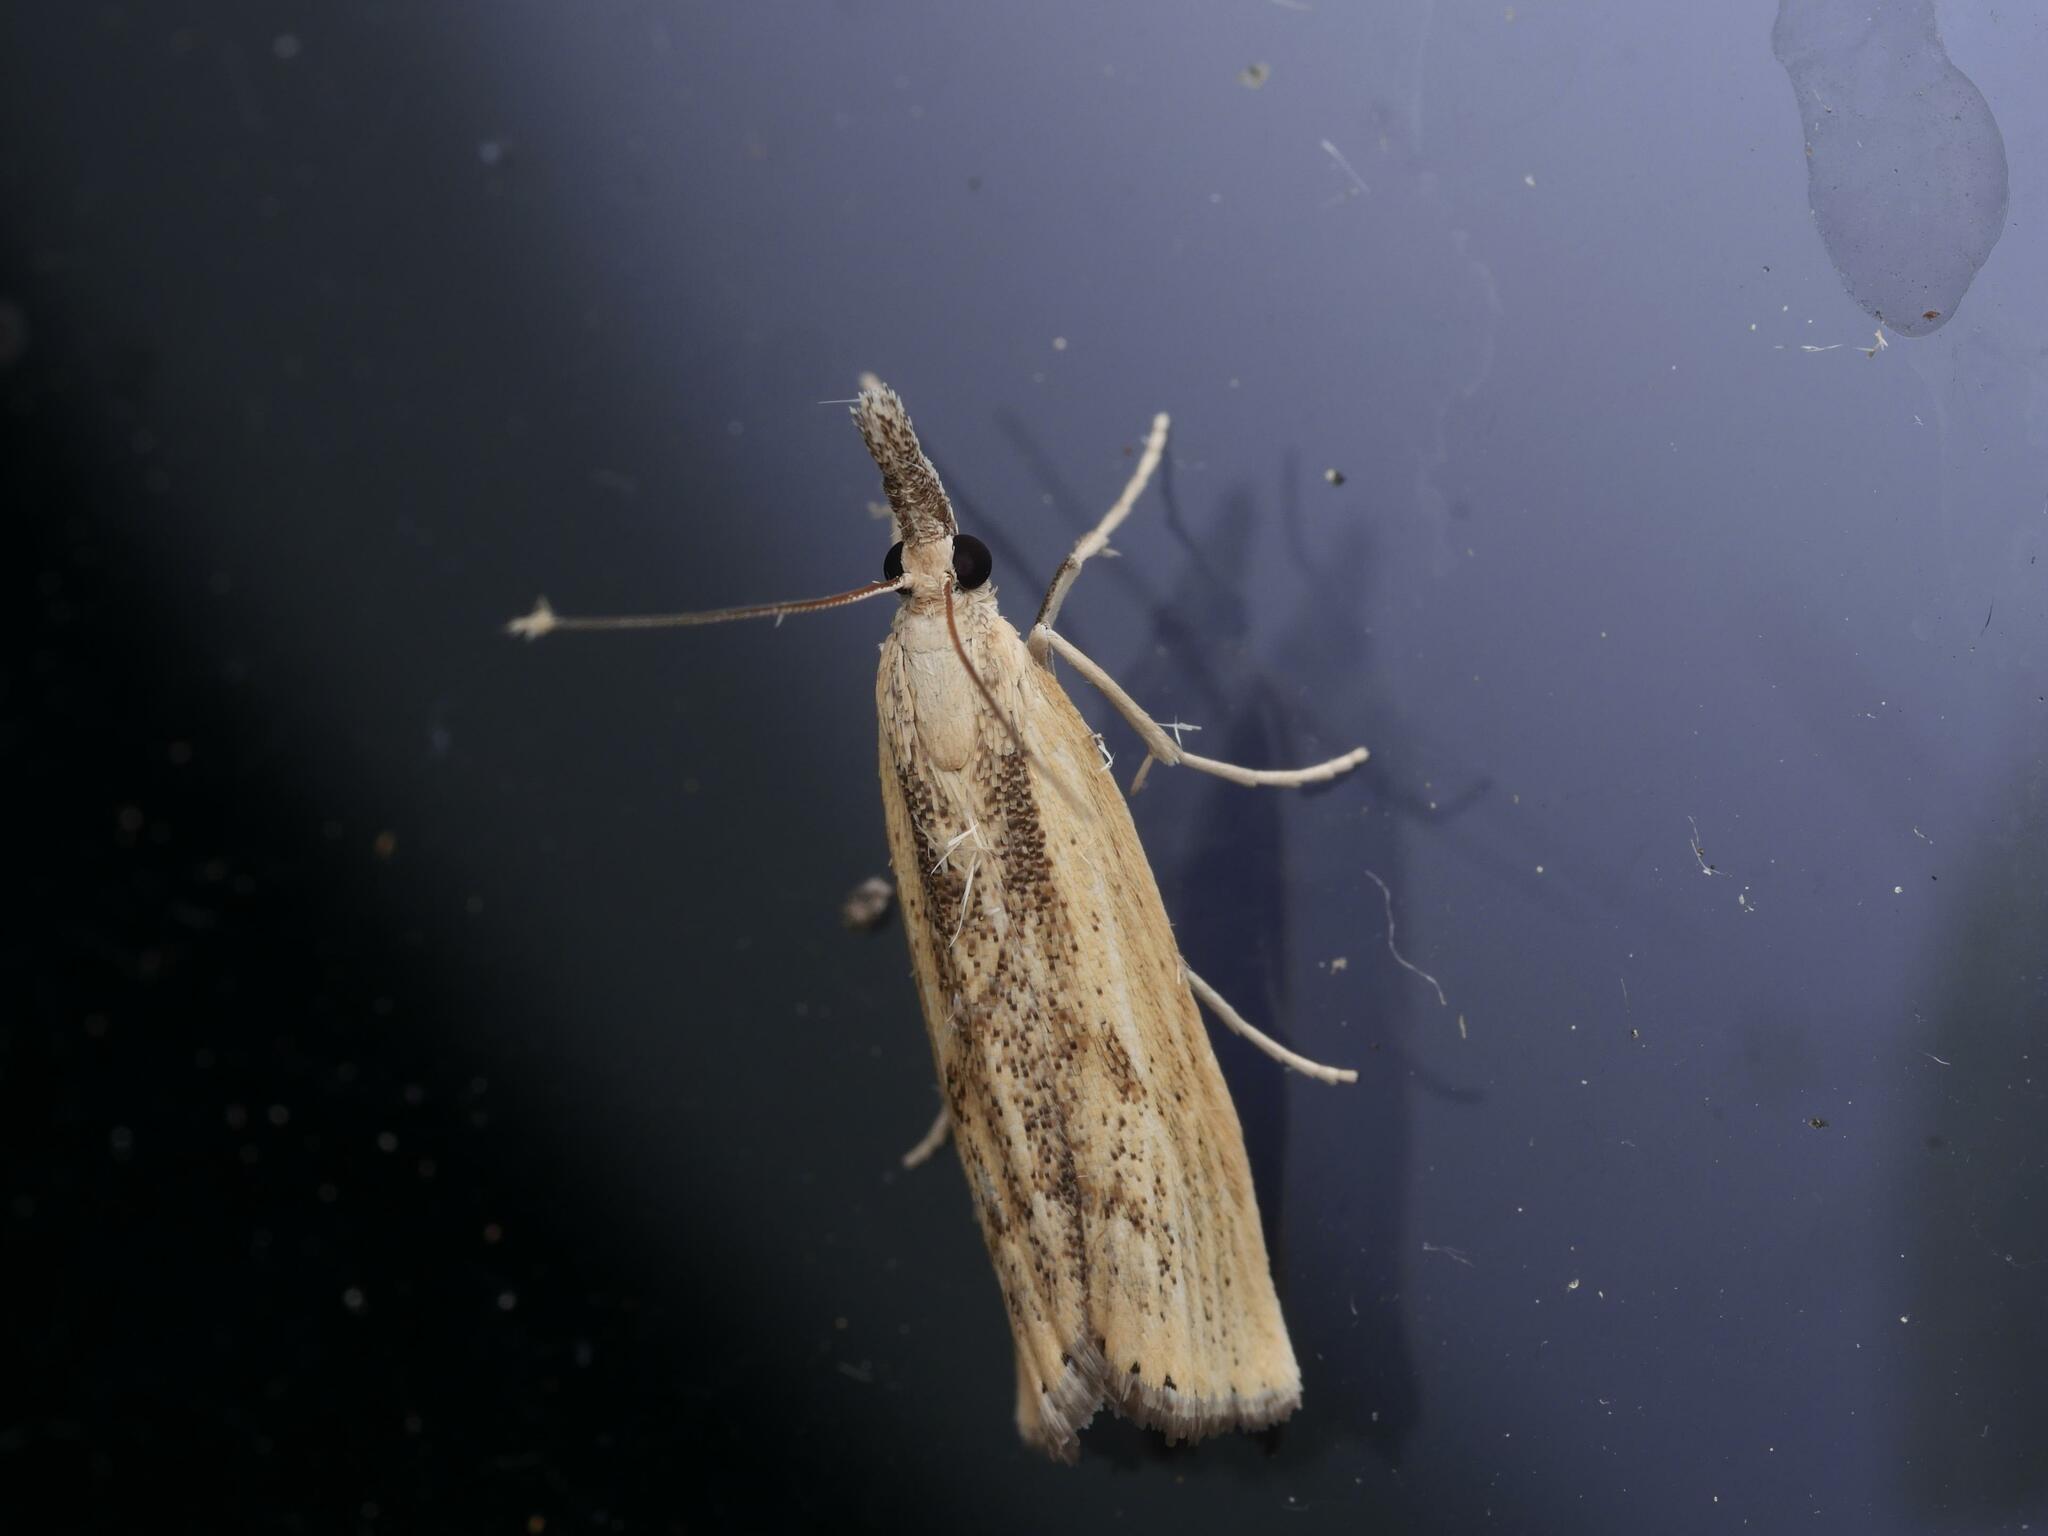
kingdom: Animalia
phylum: Arthropoda
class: Insecta
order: Lepidoptera
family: Crambidae
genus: Agriphila
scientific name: Agriphila inquinatella
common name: Barred grass-veneer
